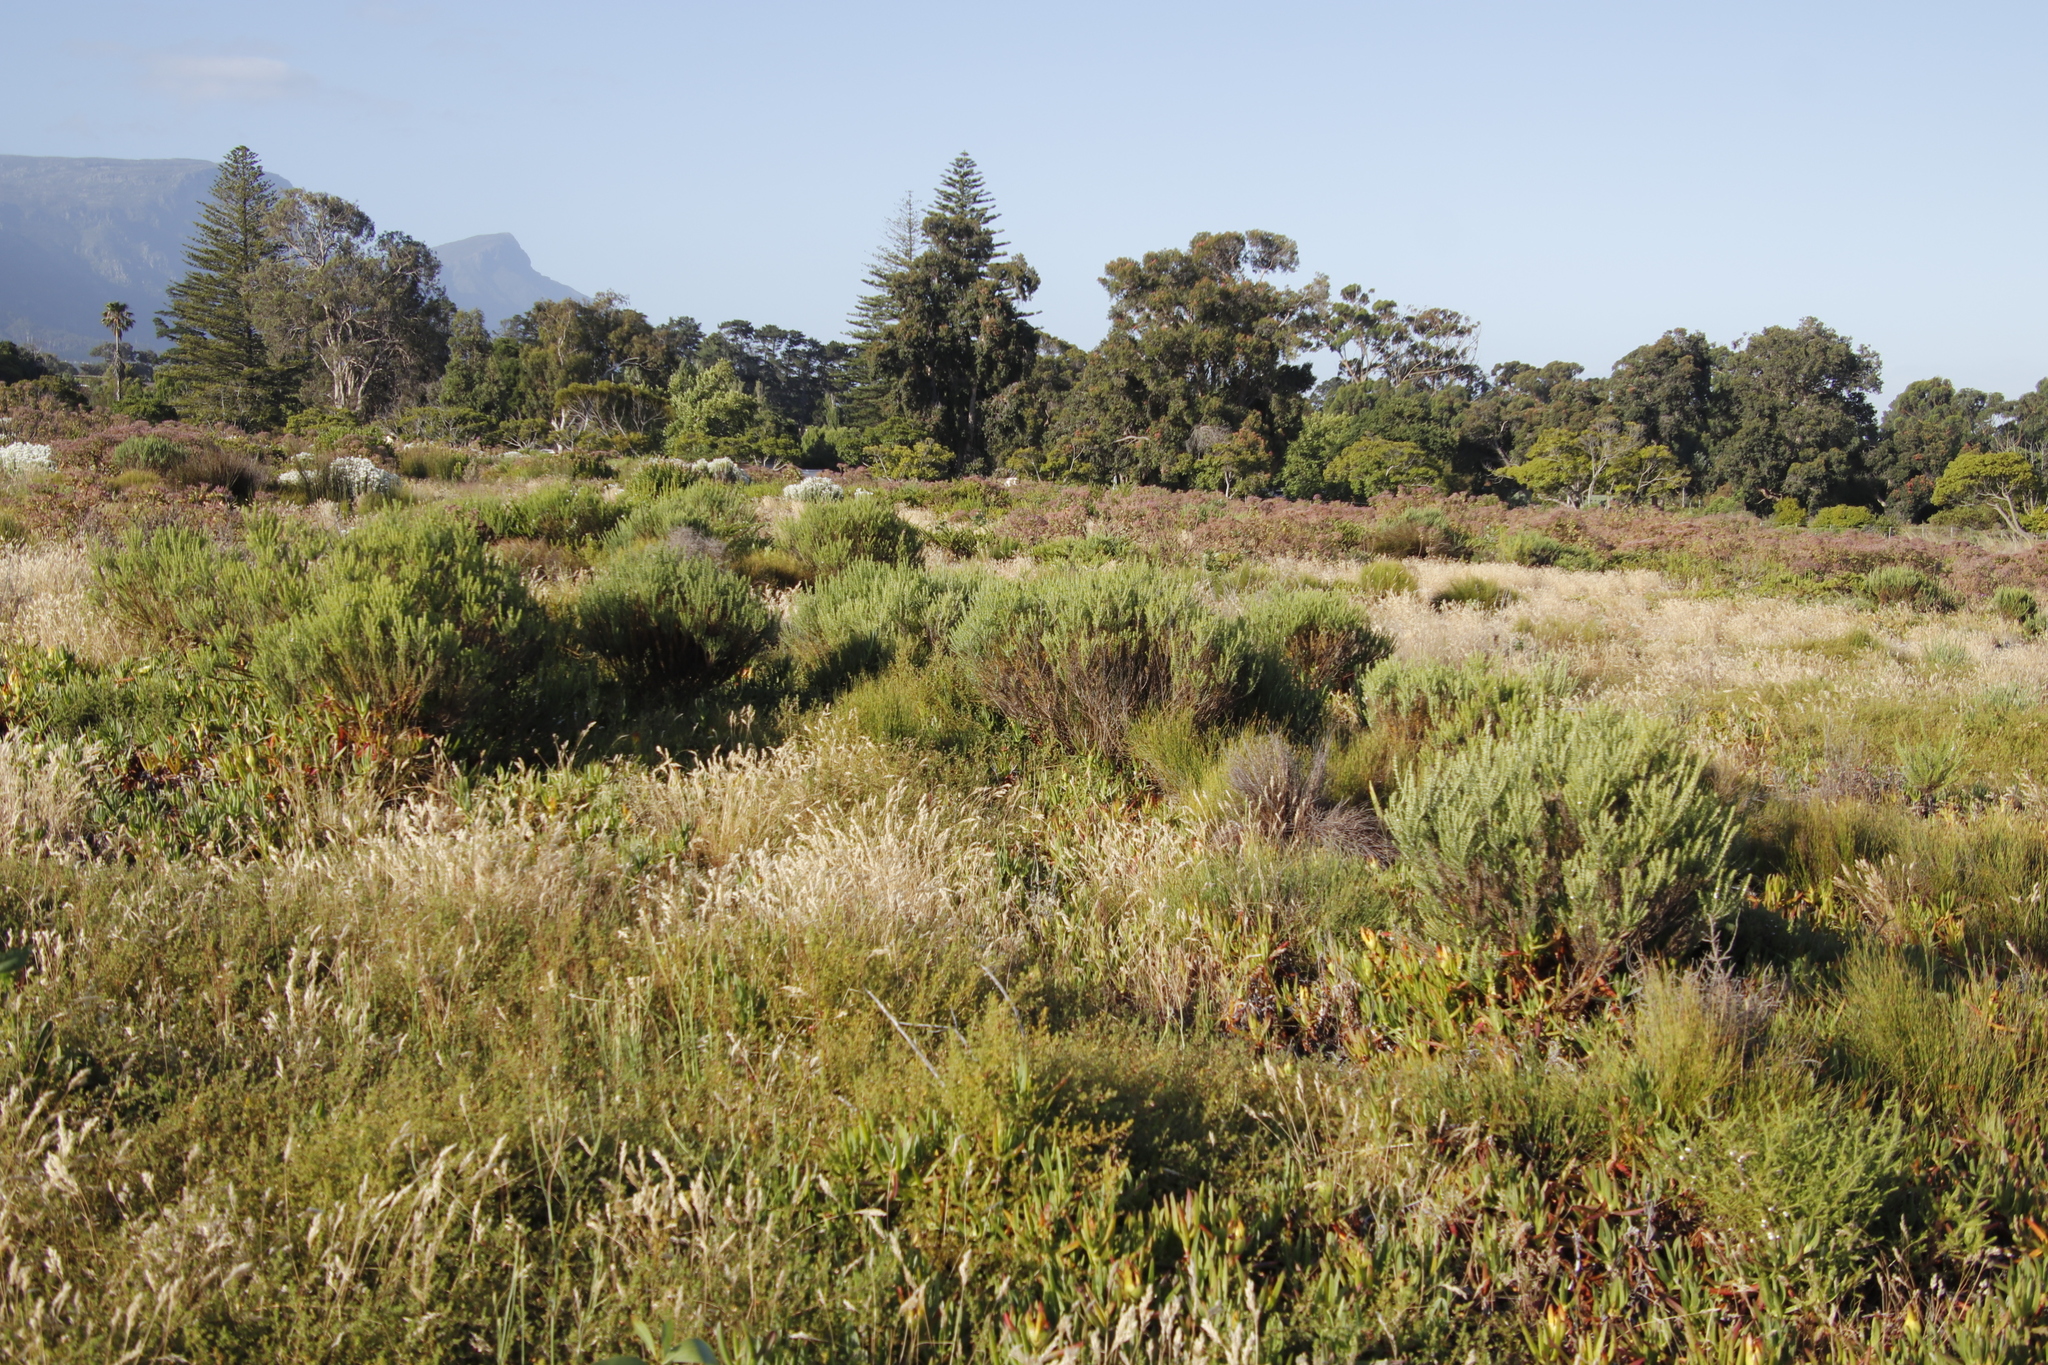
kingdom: Plantae
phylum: Tracheophyta
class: Magnoliopsida
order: Asterales
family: Asteraceae
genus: Metalasia
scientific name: Metalasia densa
